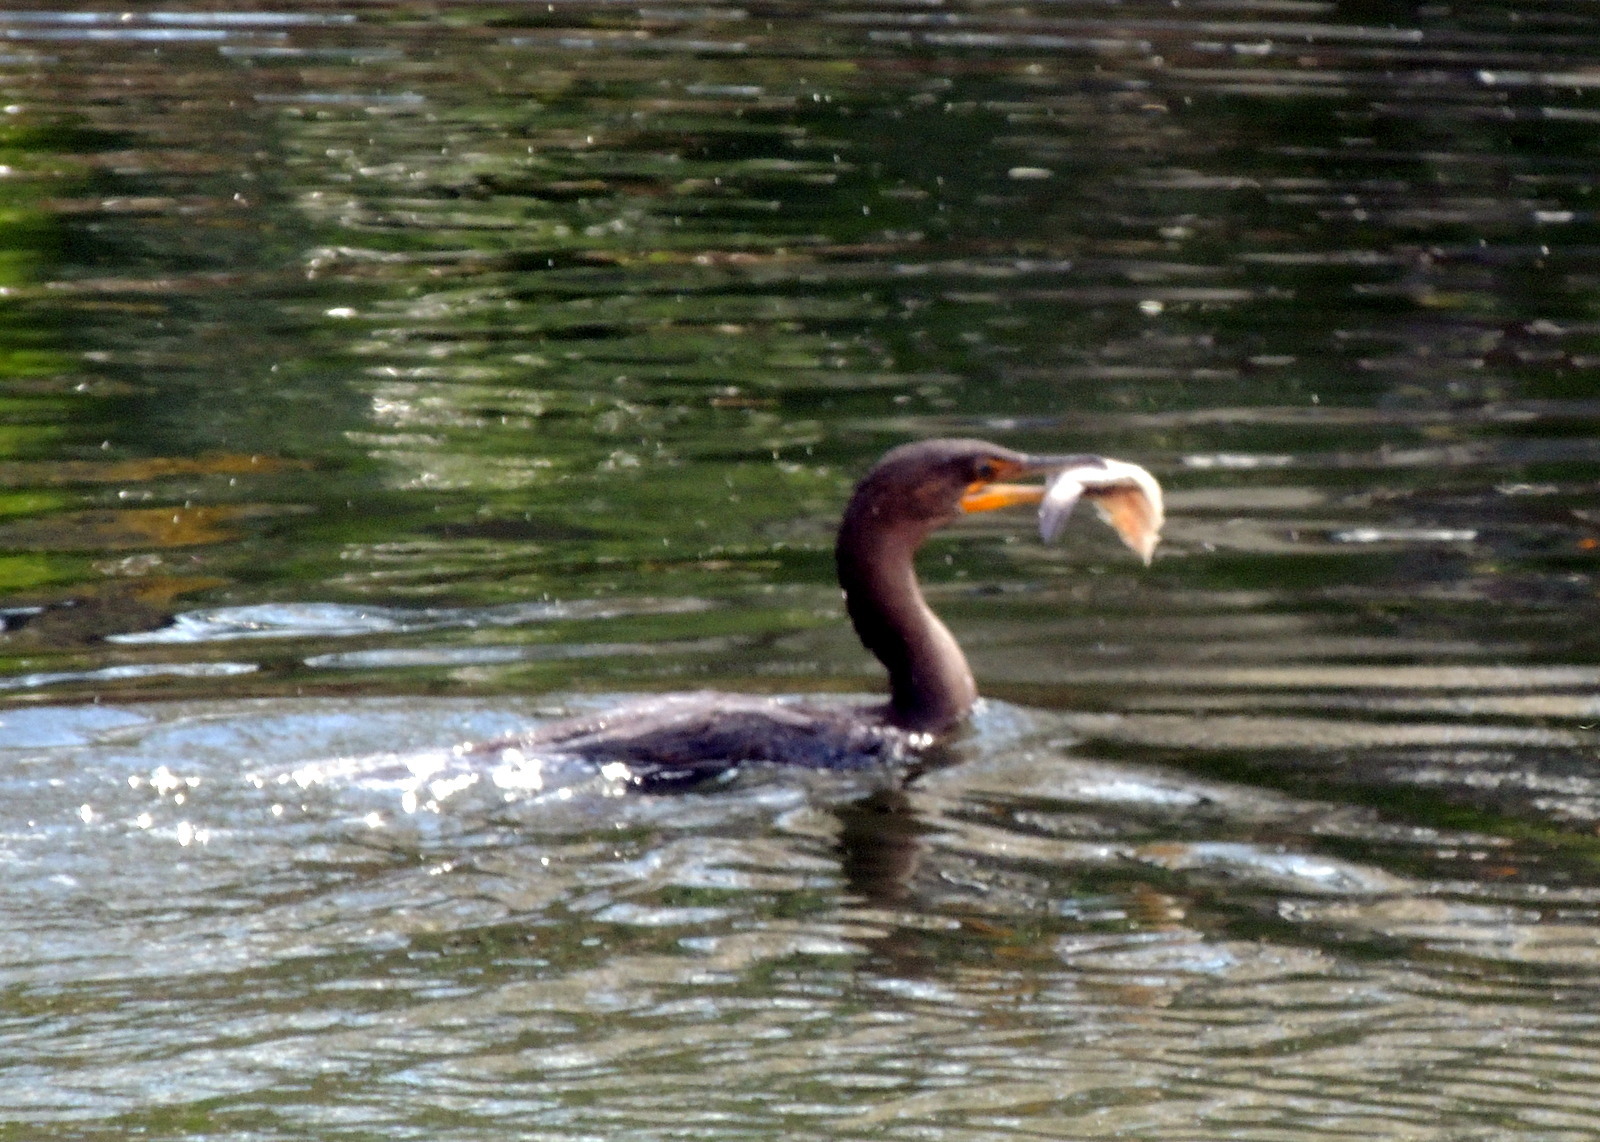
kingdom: Animalia
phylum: Chordata
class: Aves
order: Suliformes
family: Phalacrocoracidae
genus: Phalacrocorax
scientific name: Phalacrocorax auritus
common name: Double-crested cormorant
